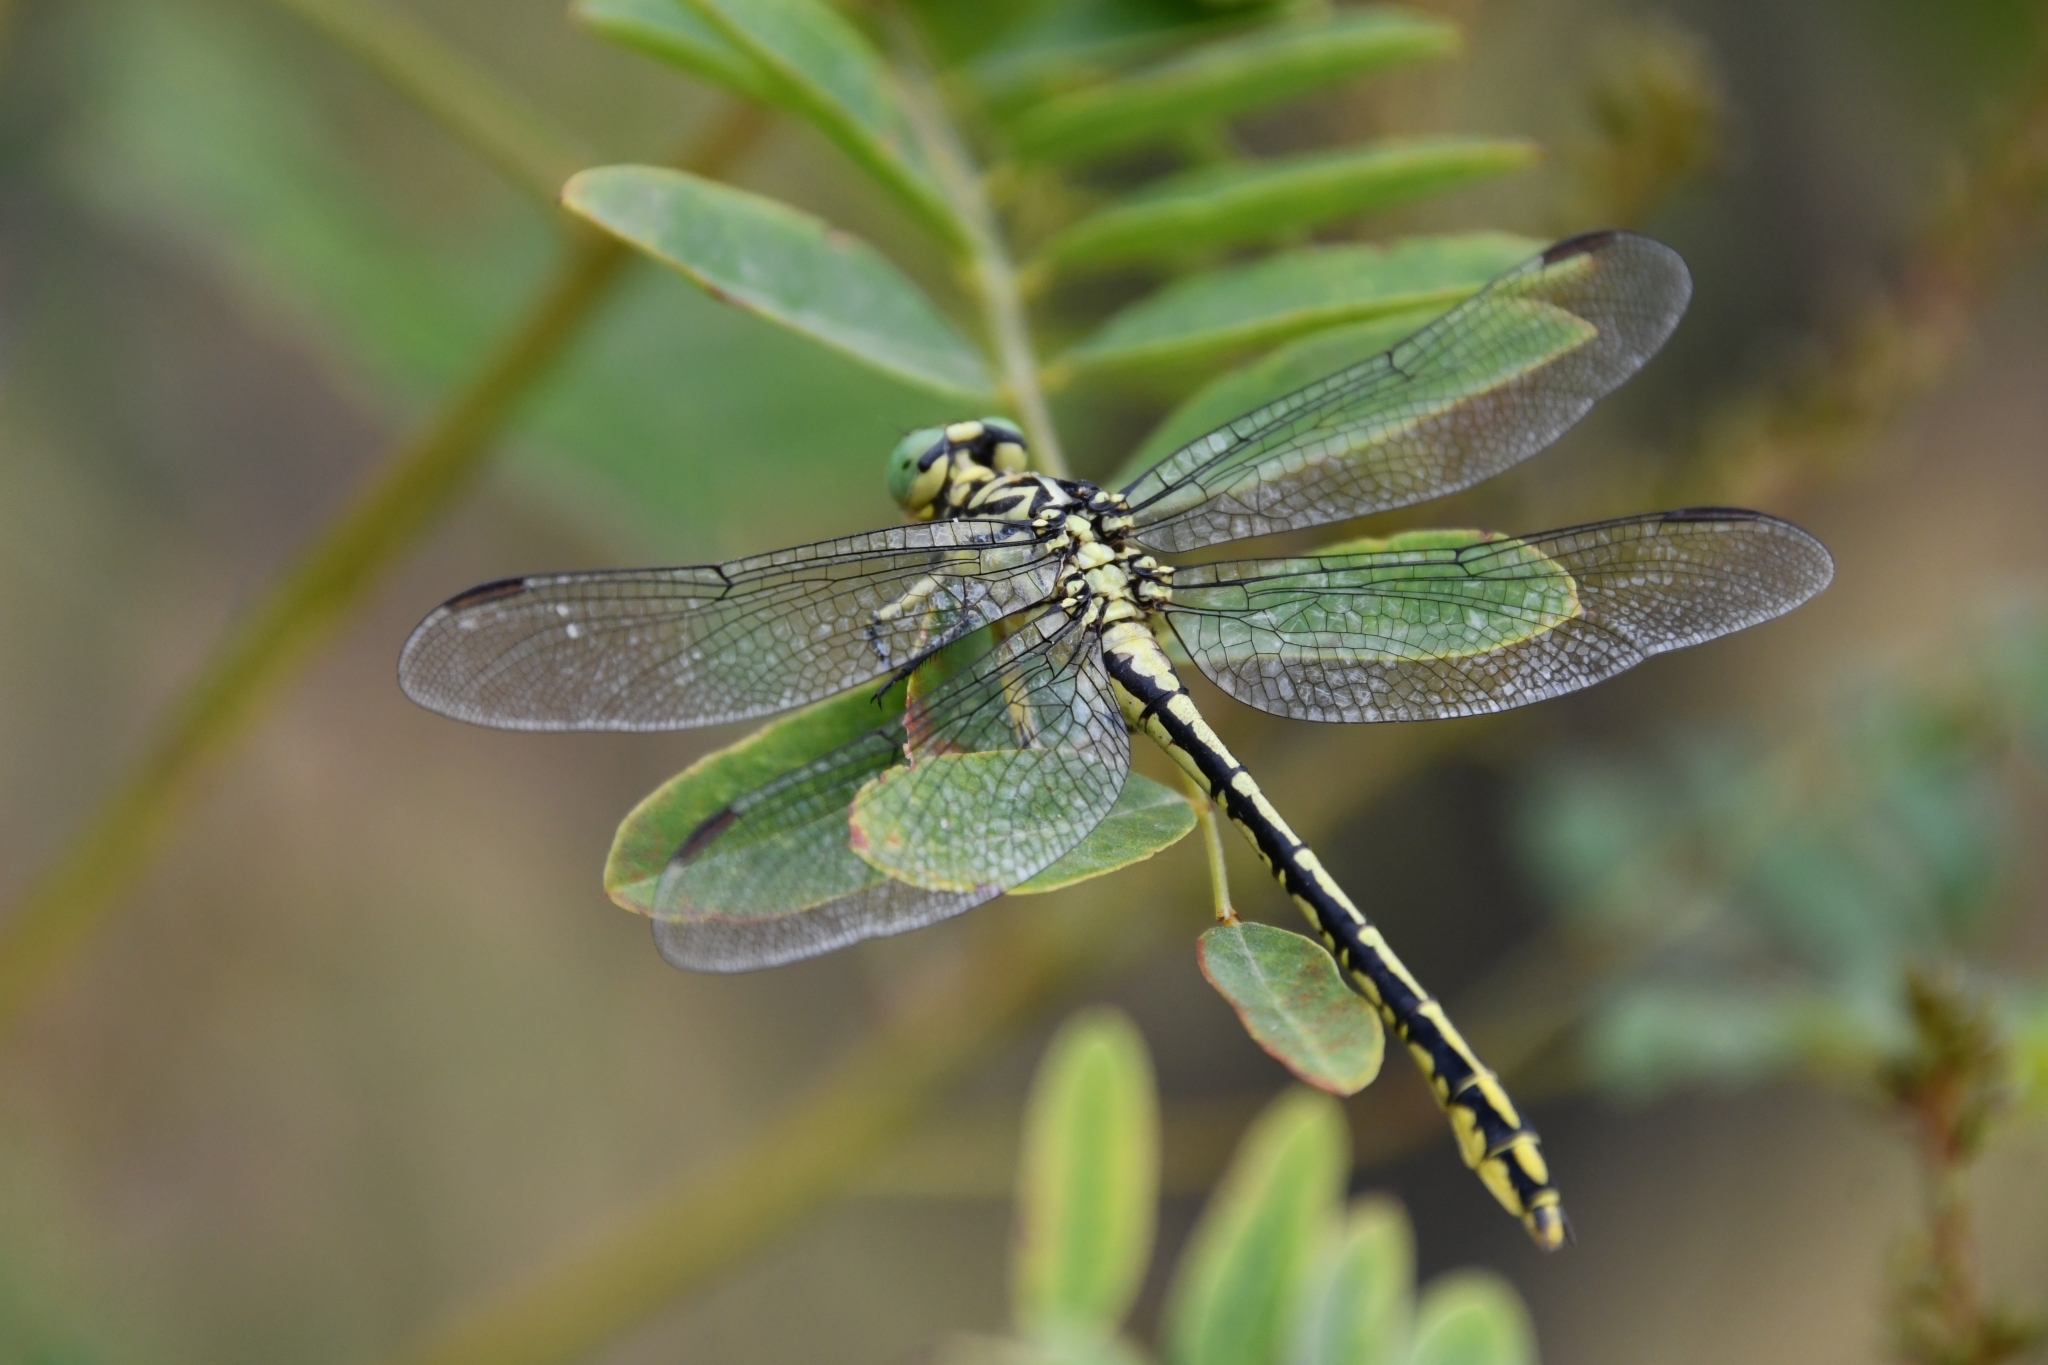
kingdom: Animalia
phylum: Arthropoda
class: Insecta
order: Odonata
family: Gomphidae
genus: Stylurus
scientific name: Stylurus flavipes
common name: River clubtail
